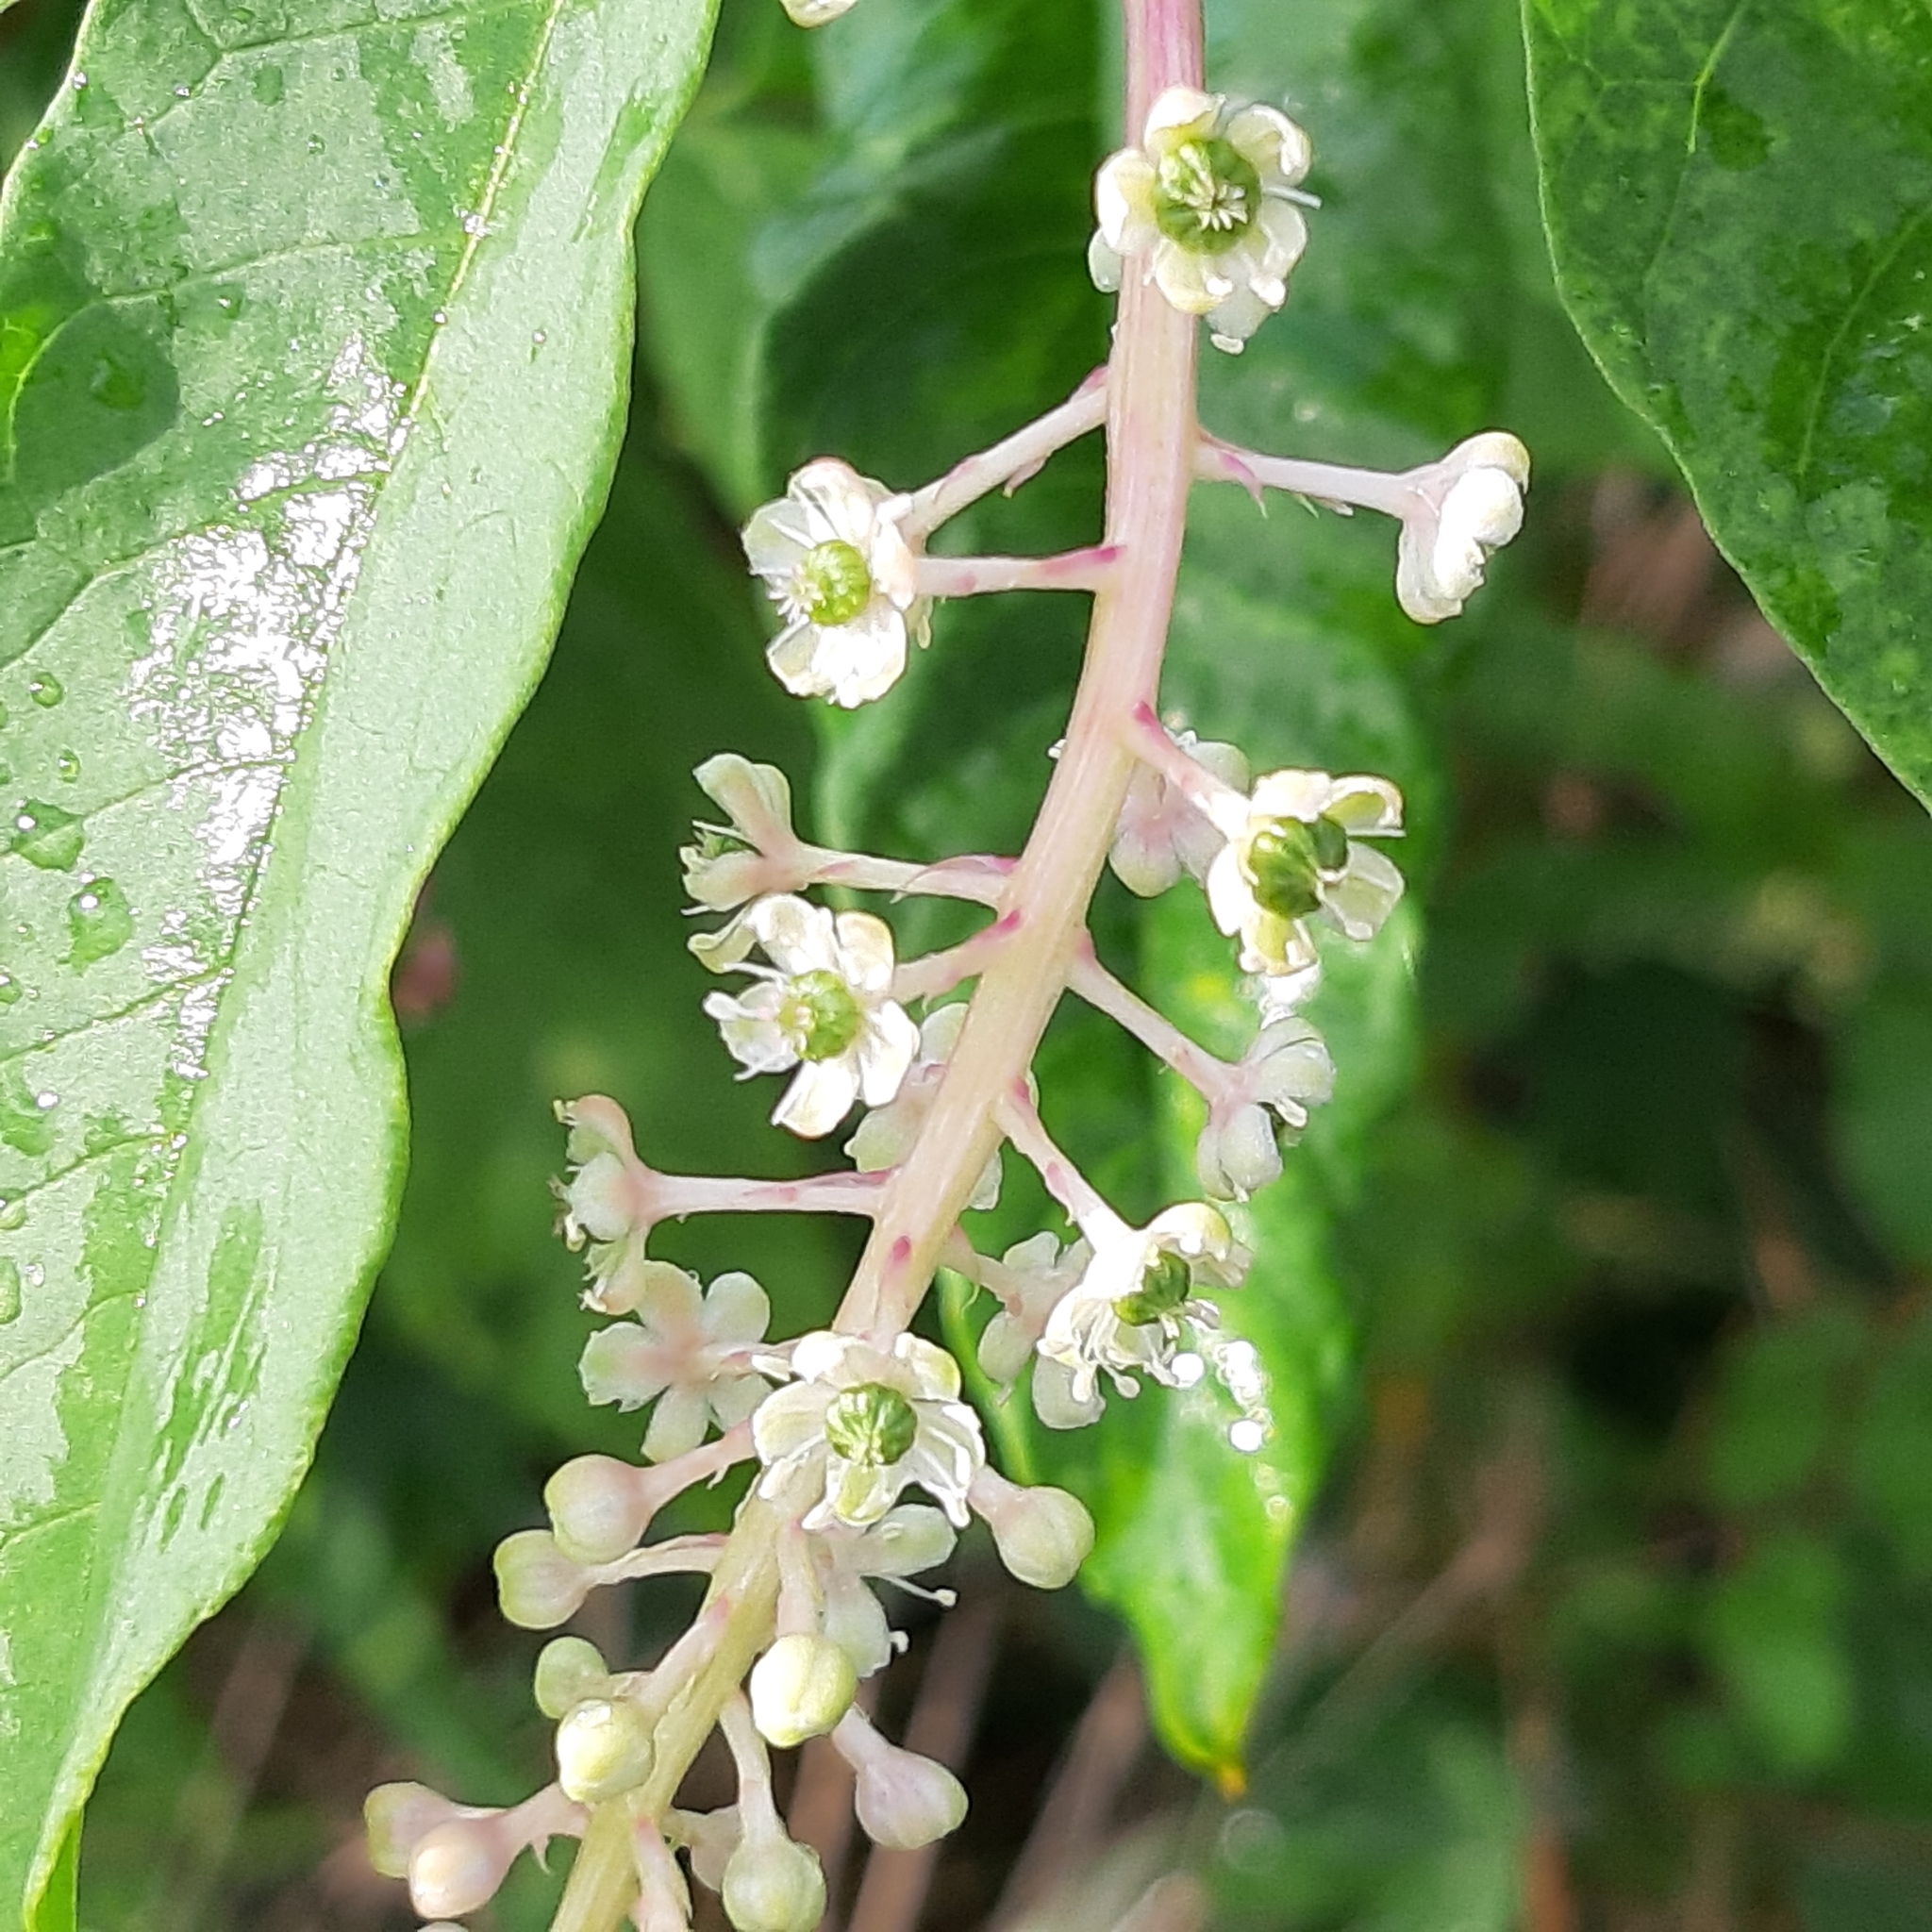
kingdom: Plantae
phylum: Tracheophyta
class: Magnoliopsida
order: Caryophyllales
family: Phytolaccaceae
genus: Phytolacca
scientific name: Phytolacca americana
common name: American pokeweed
